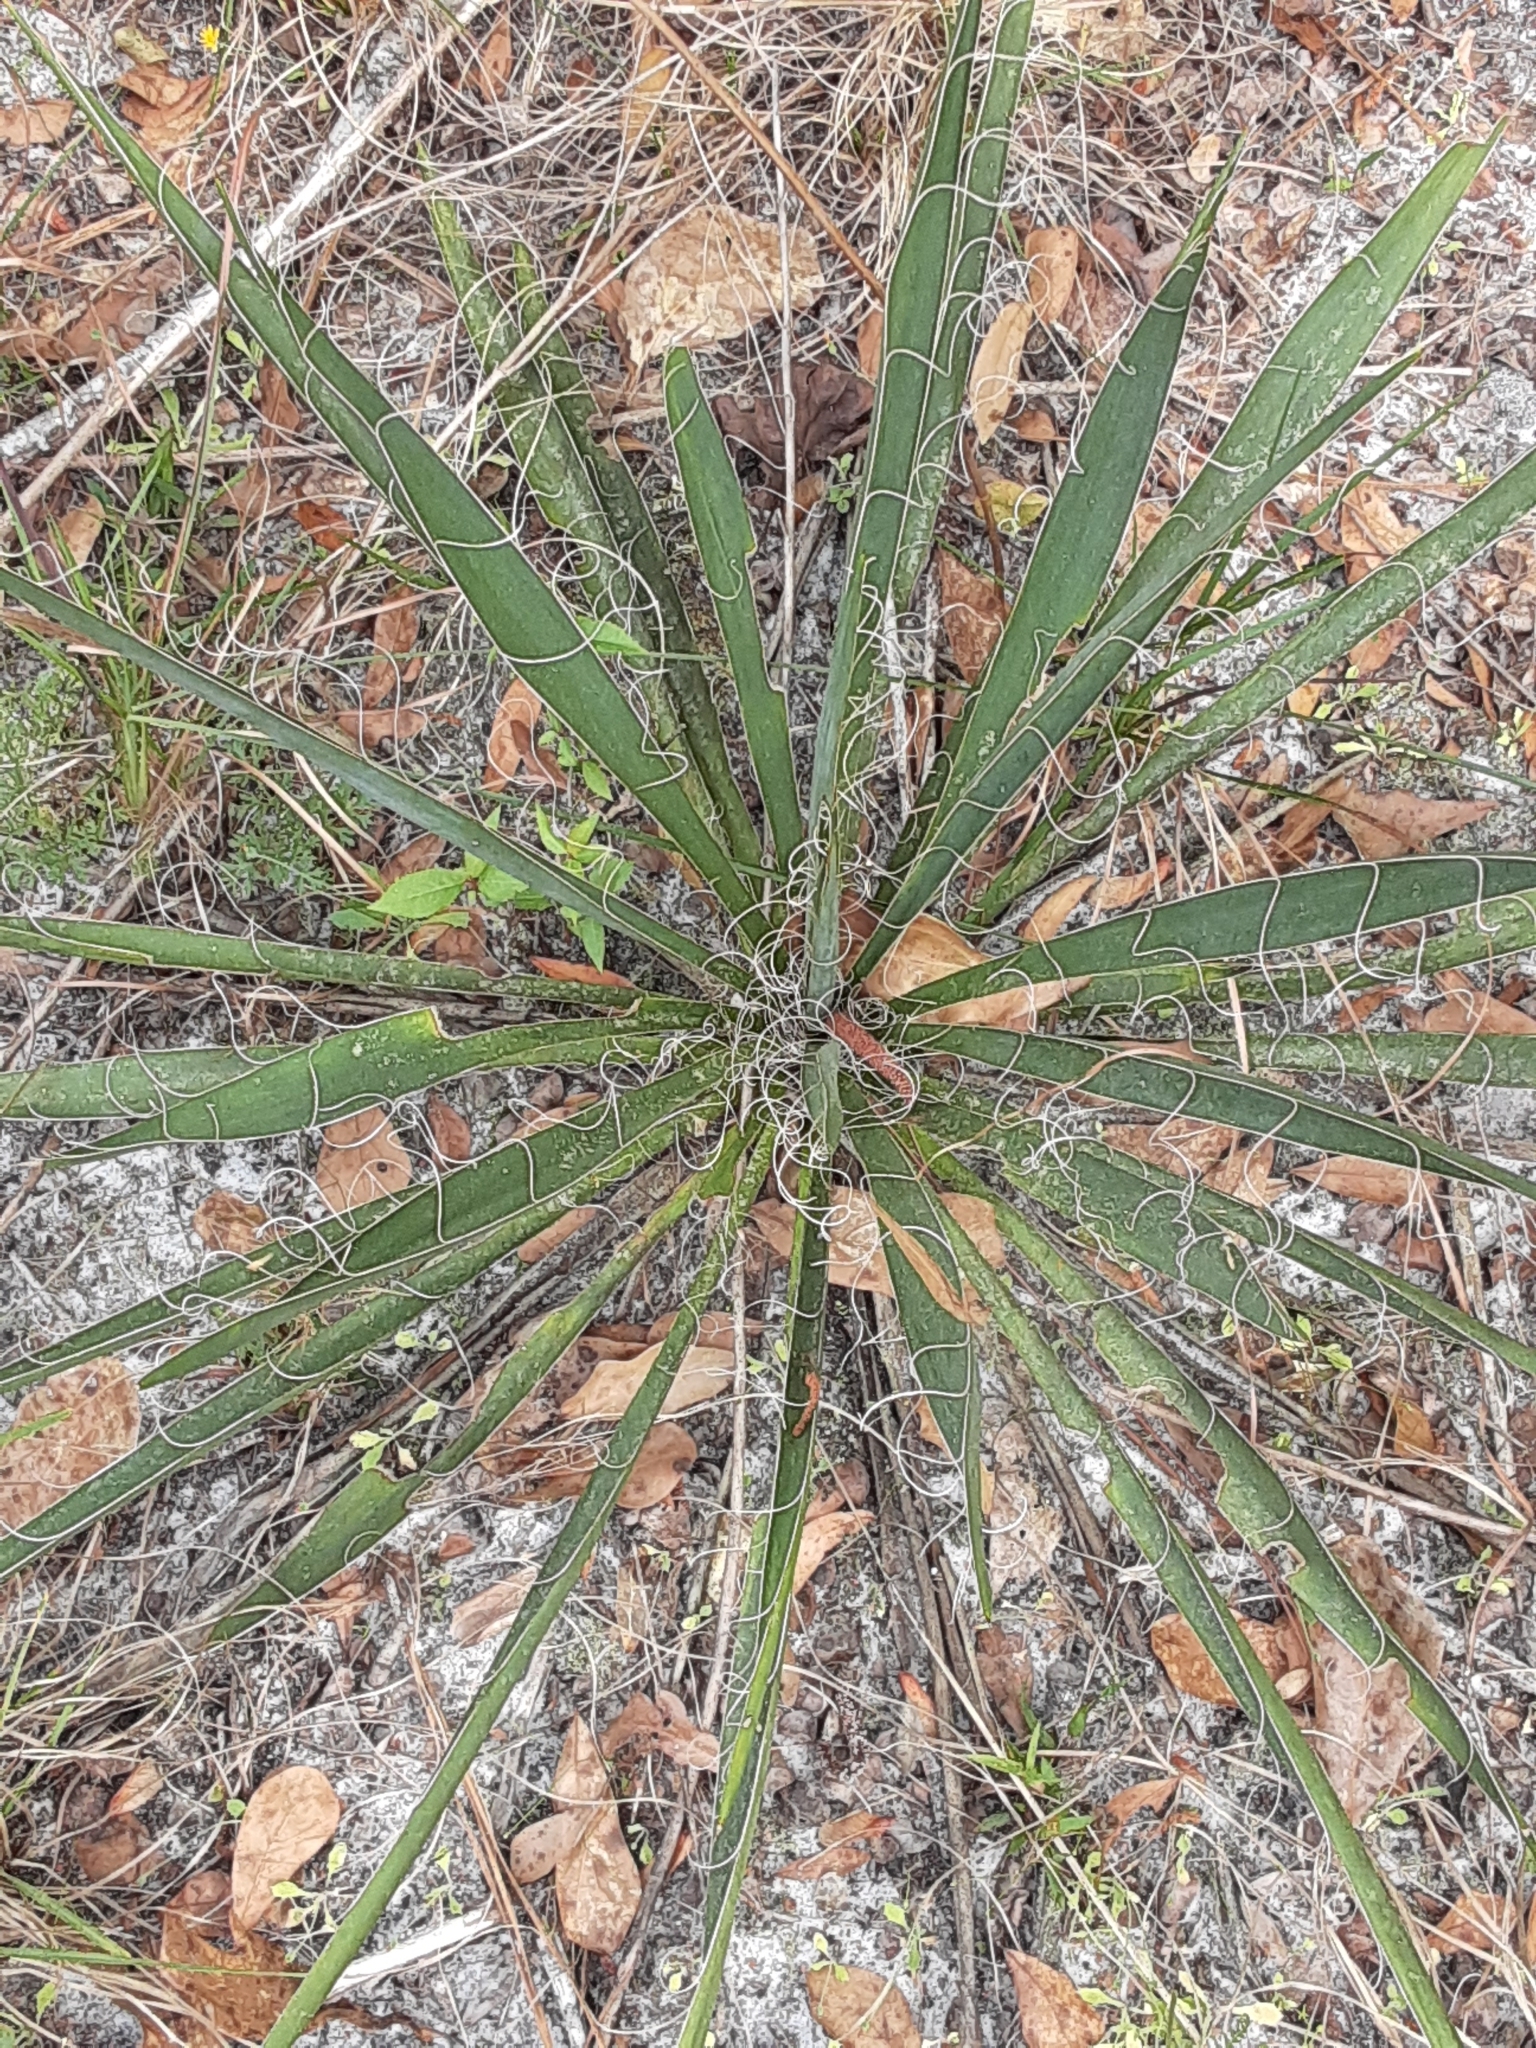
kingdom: Plantae
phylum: Tracheophyta
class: Liliopsida
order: Asparagales
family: Asparagaceae
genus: Yucca
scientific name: Yucca filamentosa
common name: Adam's-needle
